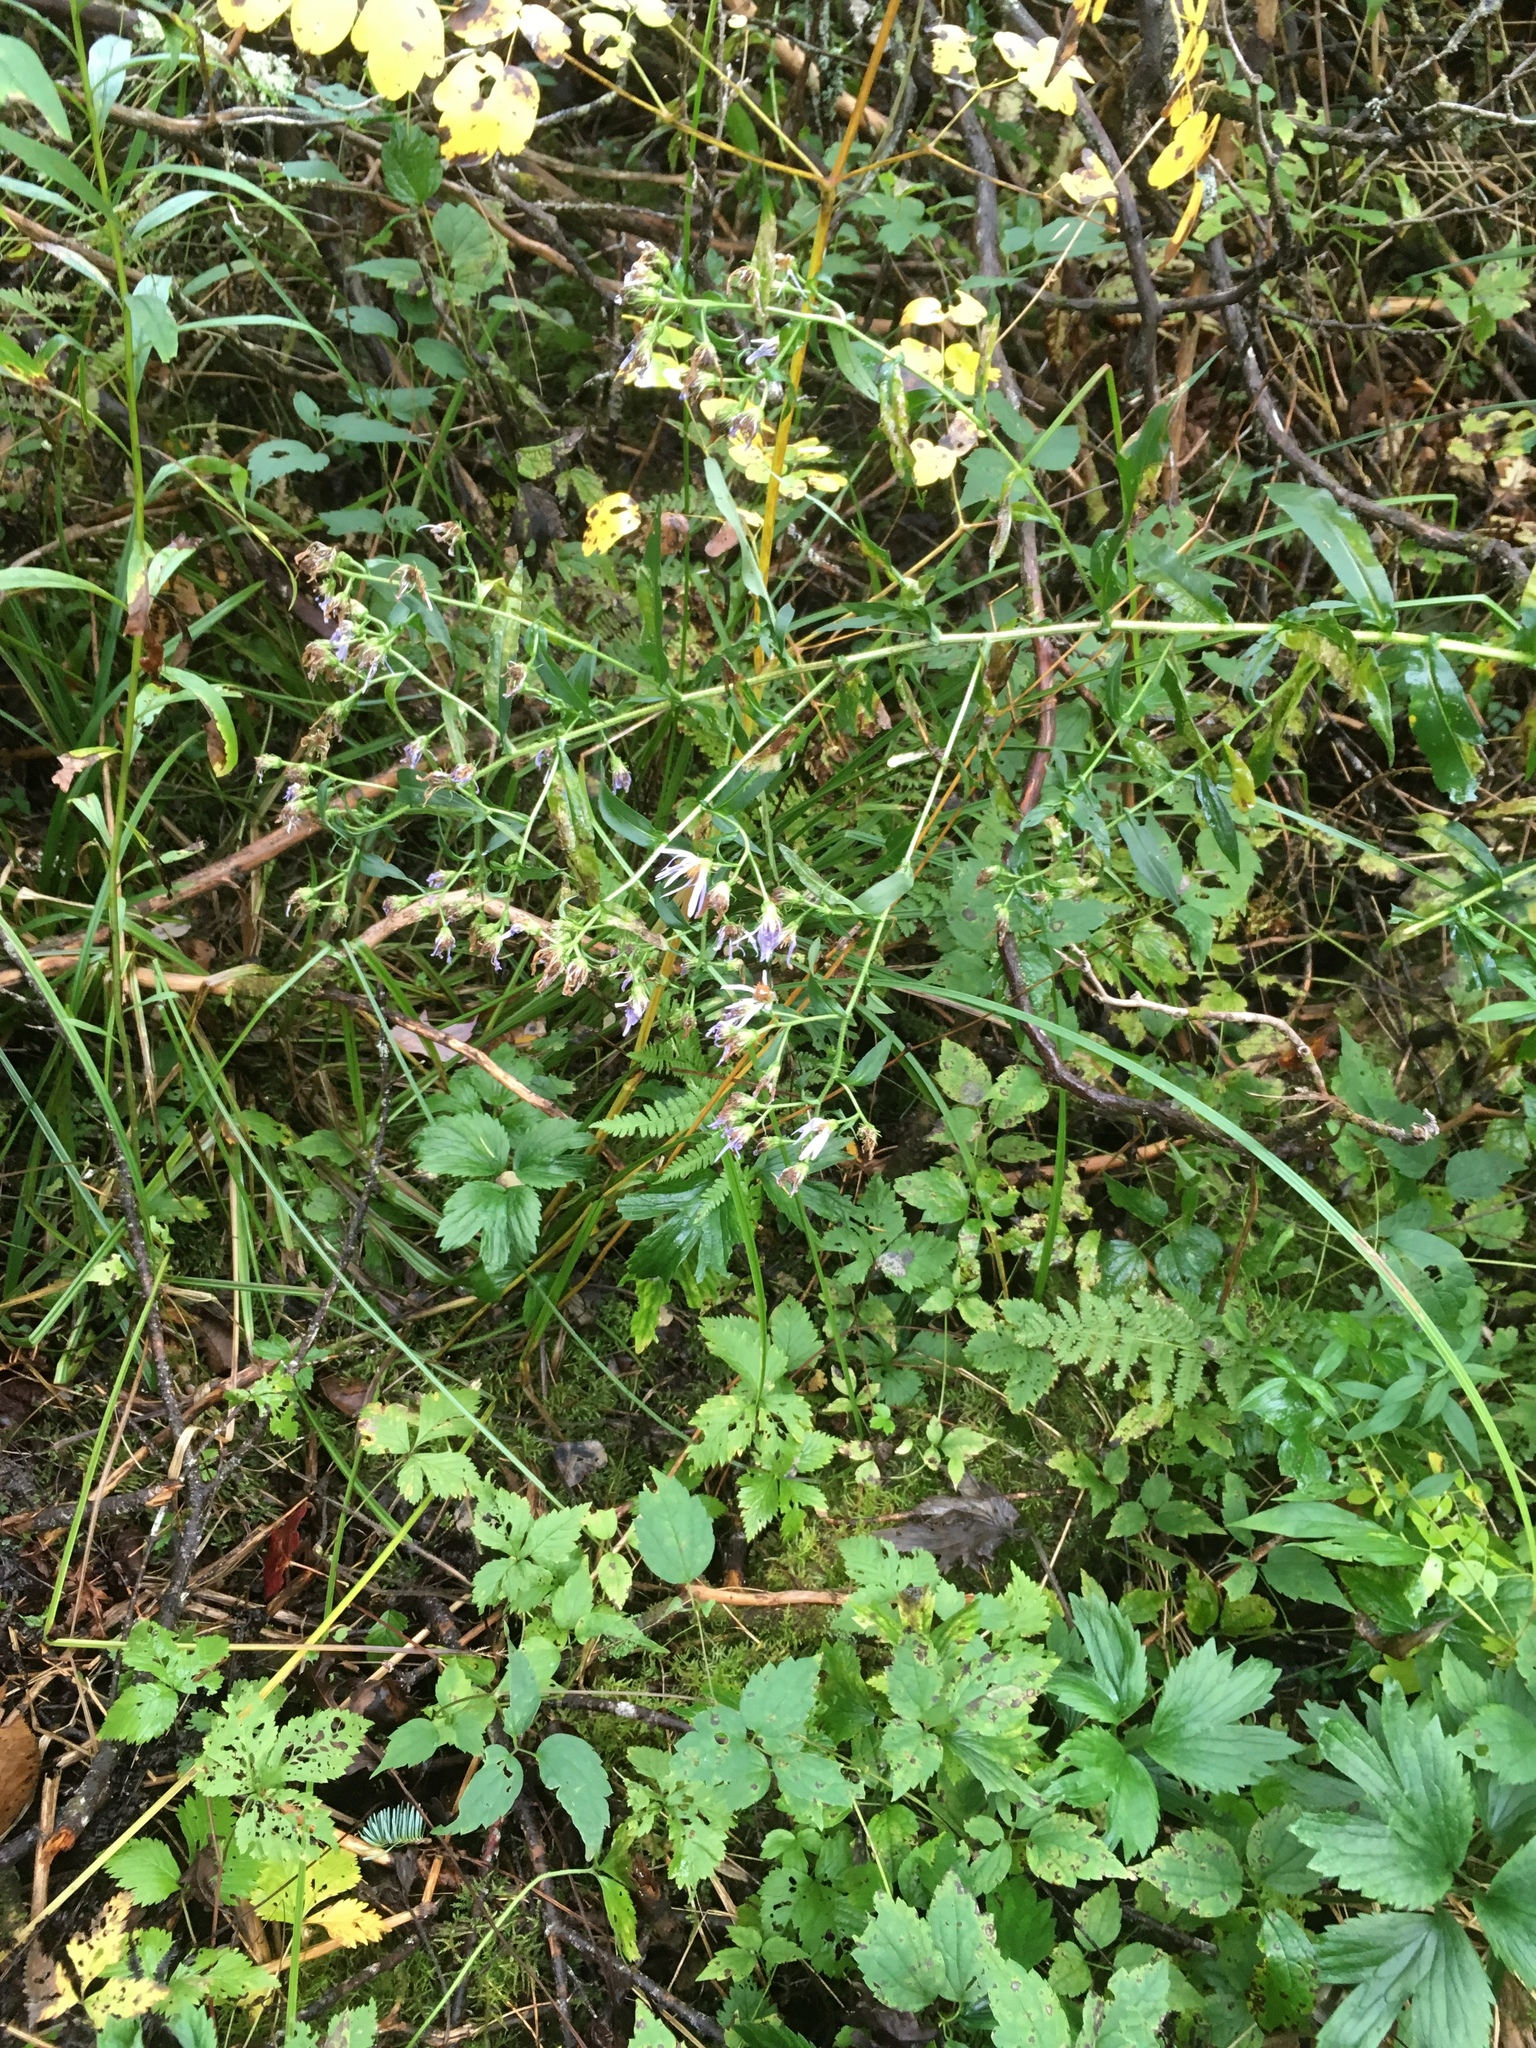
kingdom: Plantae
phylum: Tracheophyta
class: Magnoliopsida
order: Asterales
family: Asteraceae
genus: Symphyotrichum
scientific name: Symphyotrichum puniceum
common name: Bog aster
